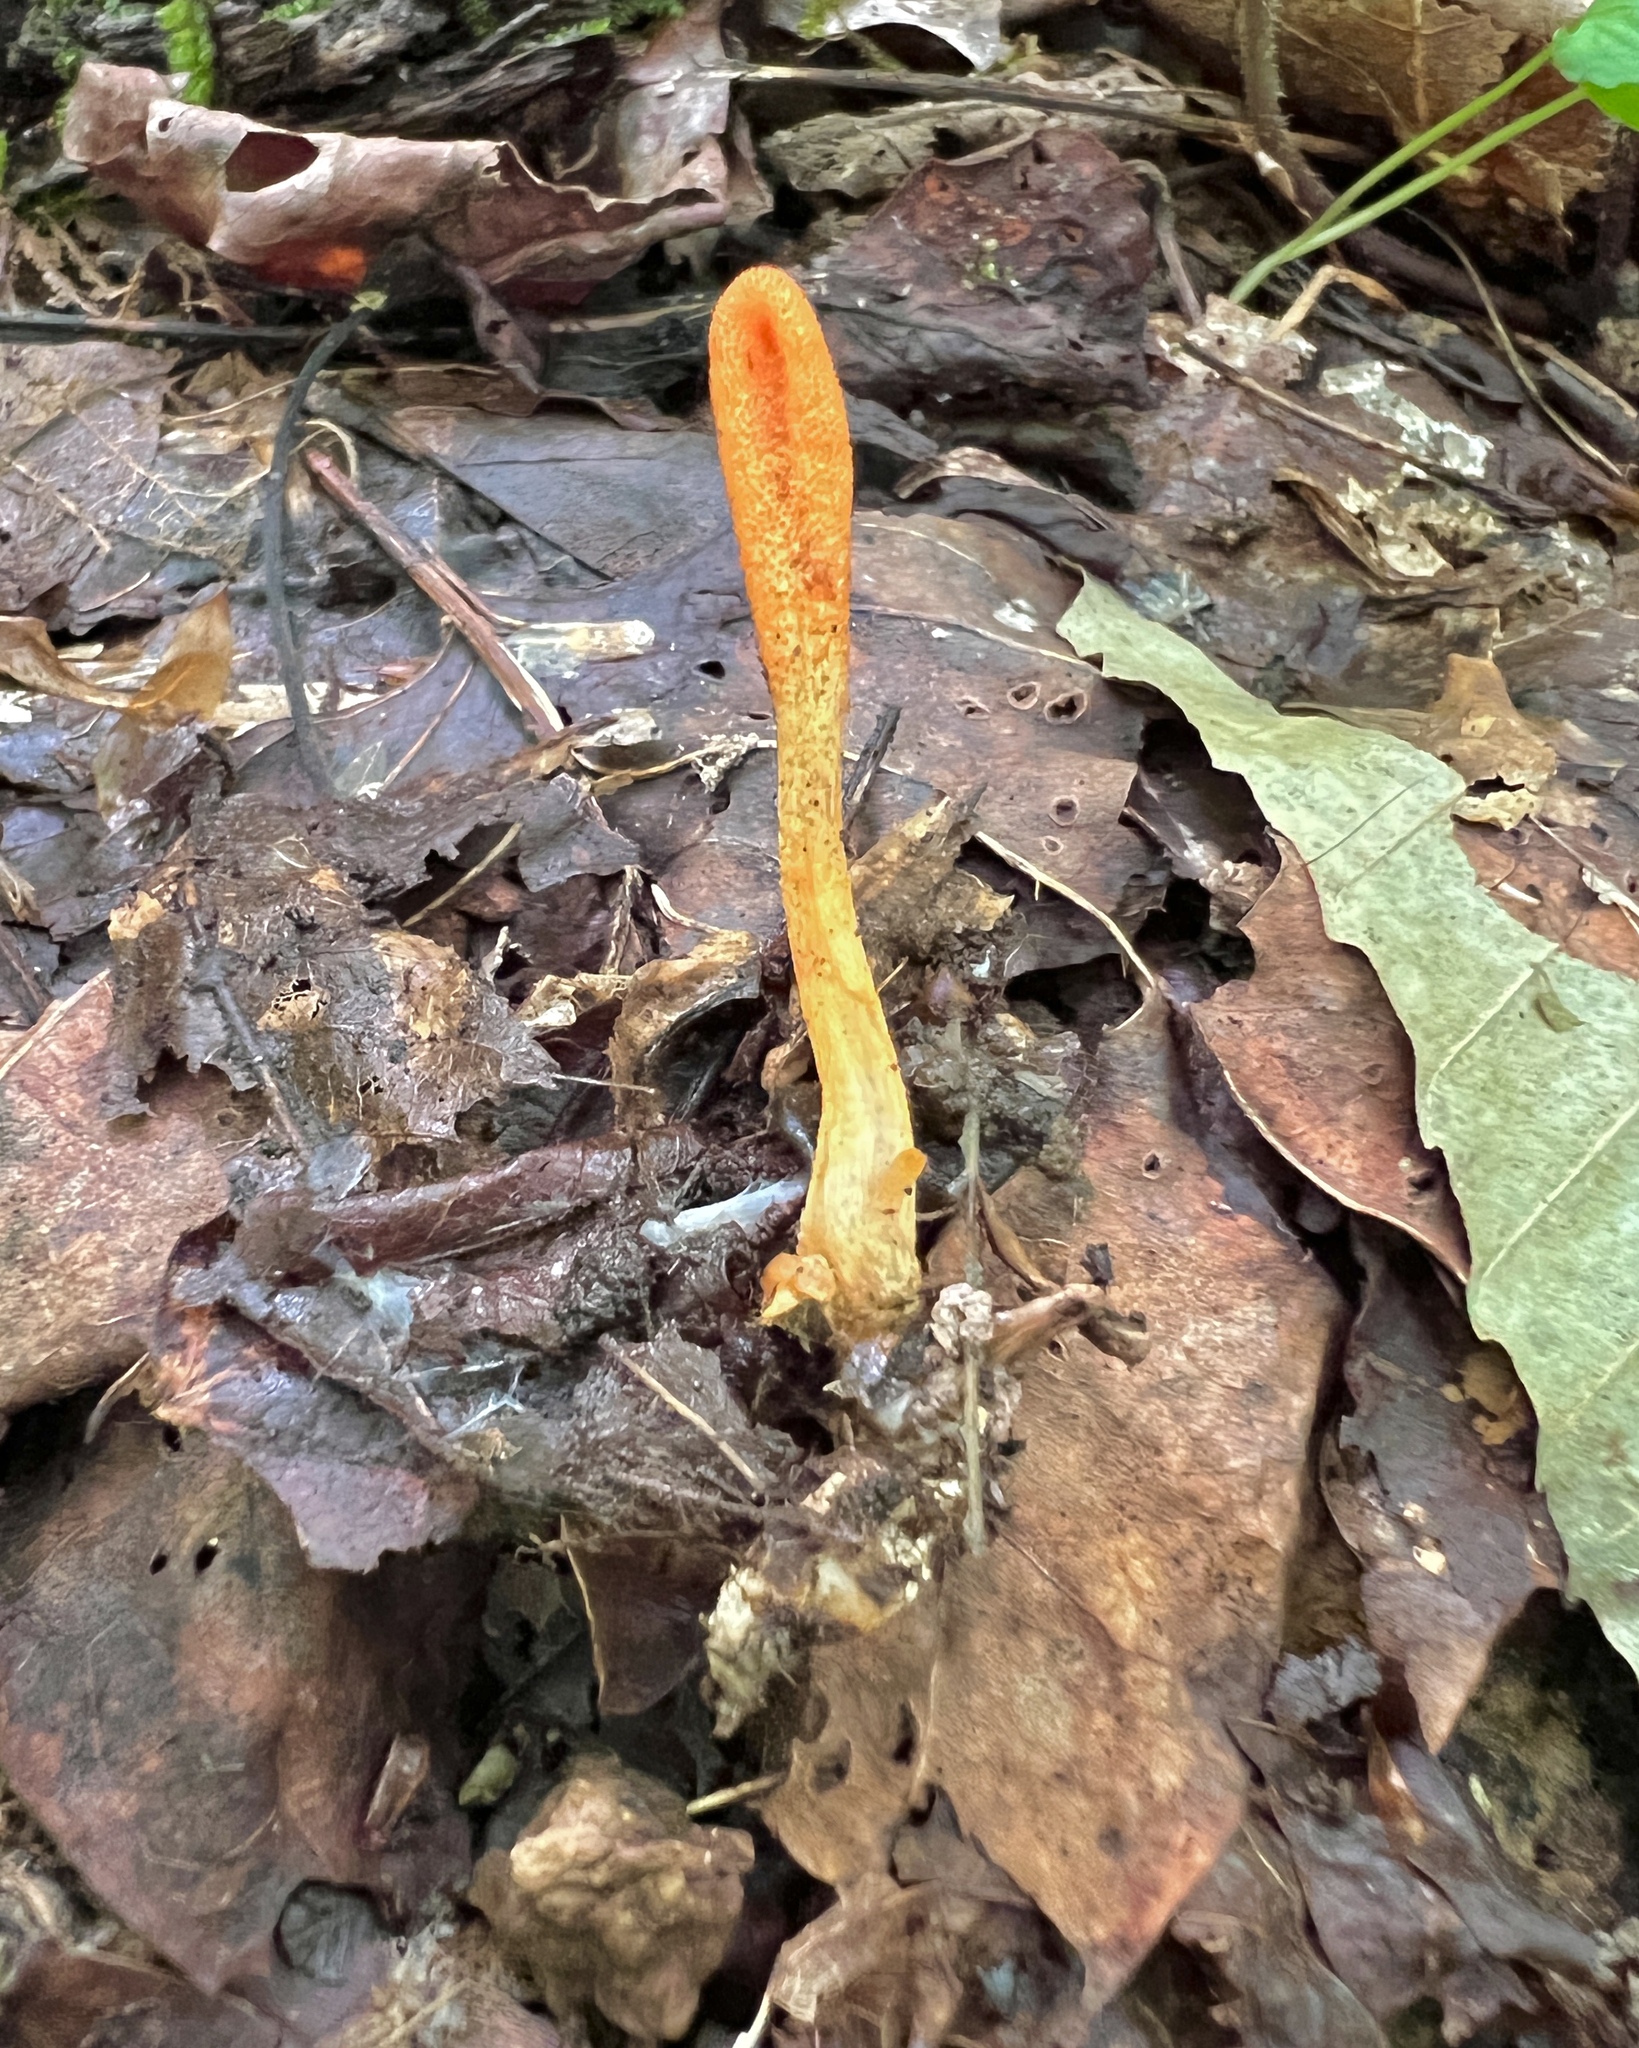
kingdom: Fungi
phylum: Ascomycota
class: Sordariomycetes
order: Hypocreales
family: Cordycipitaceae
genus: Cordyceps
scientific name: Cordyceps militaris
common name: Scarlet caterpillar fungus
